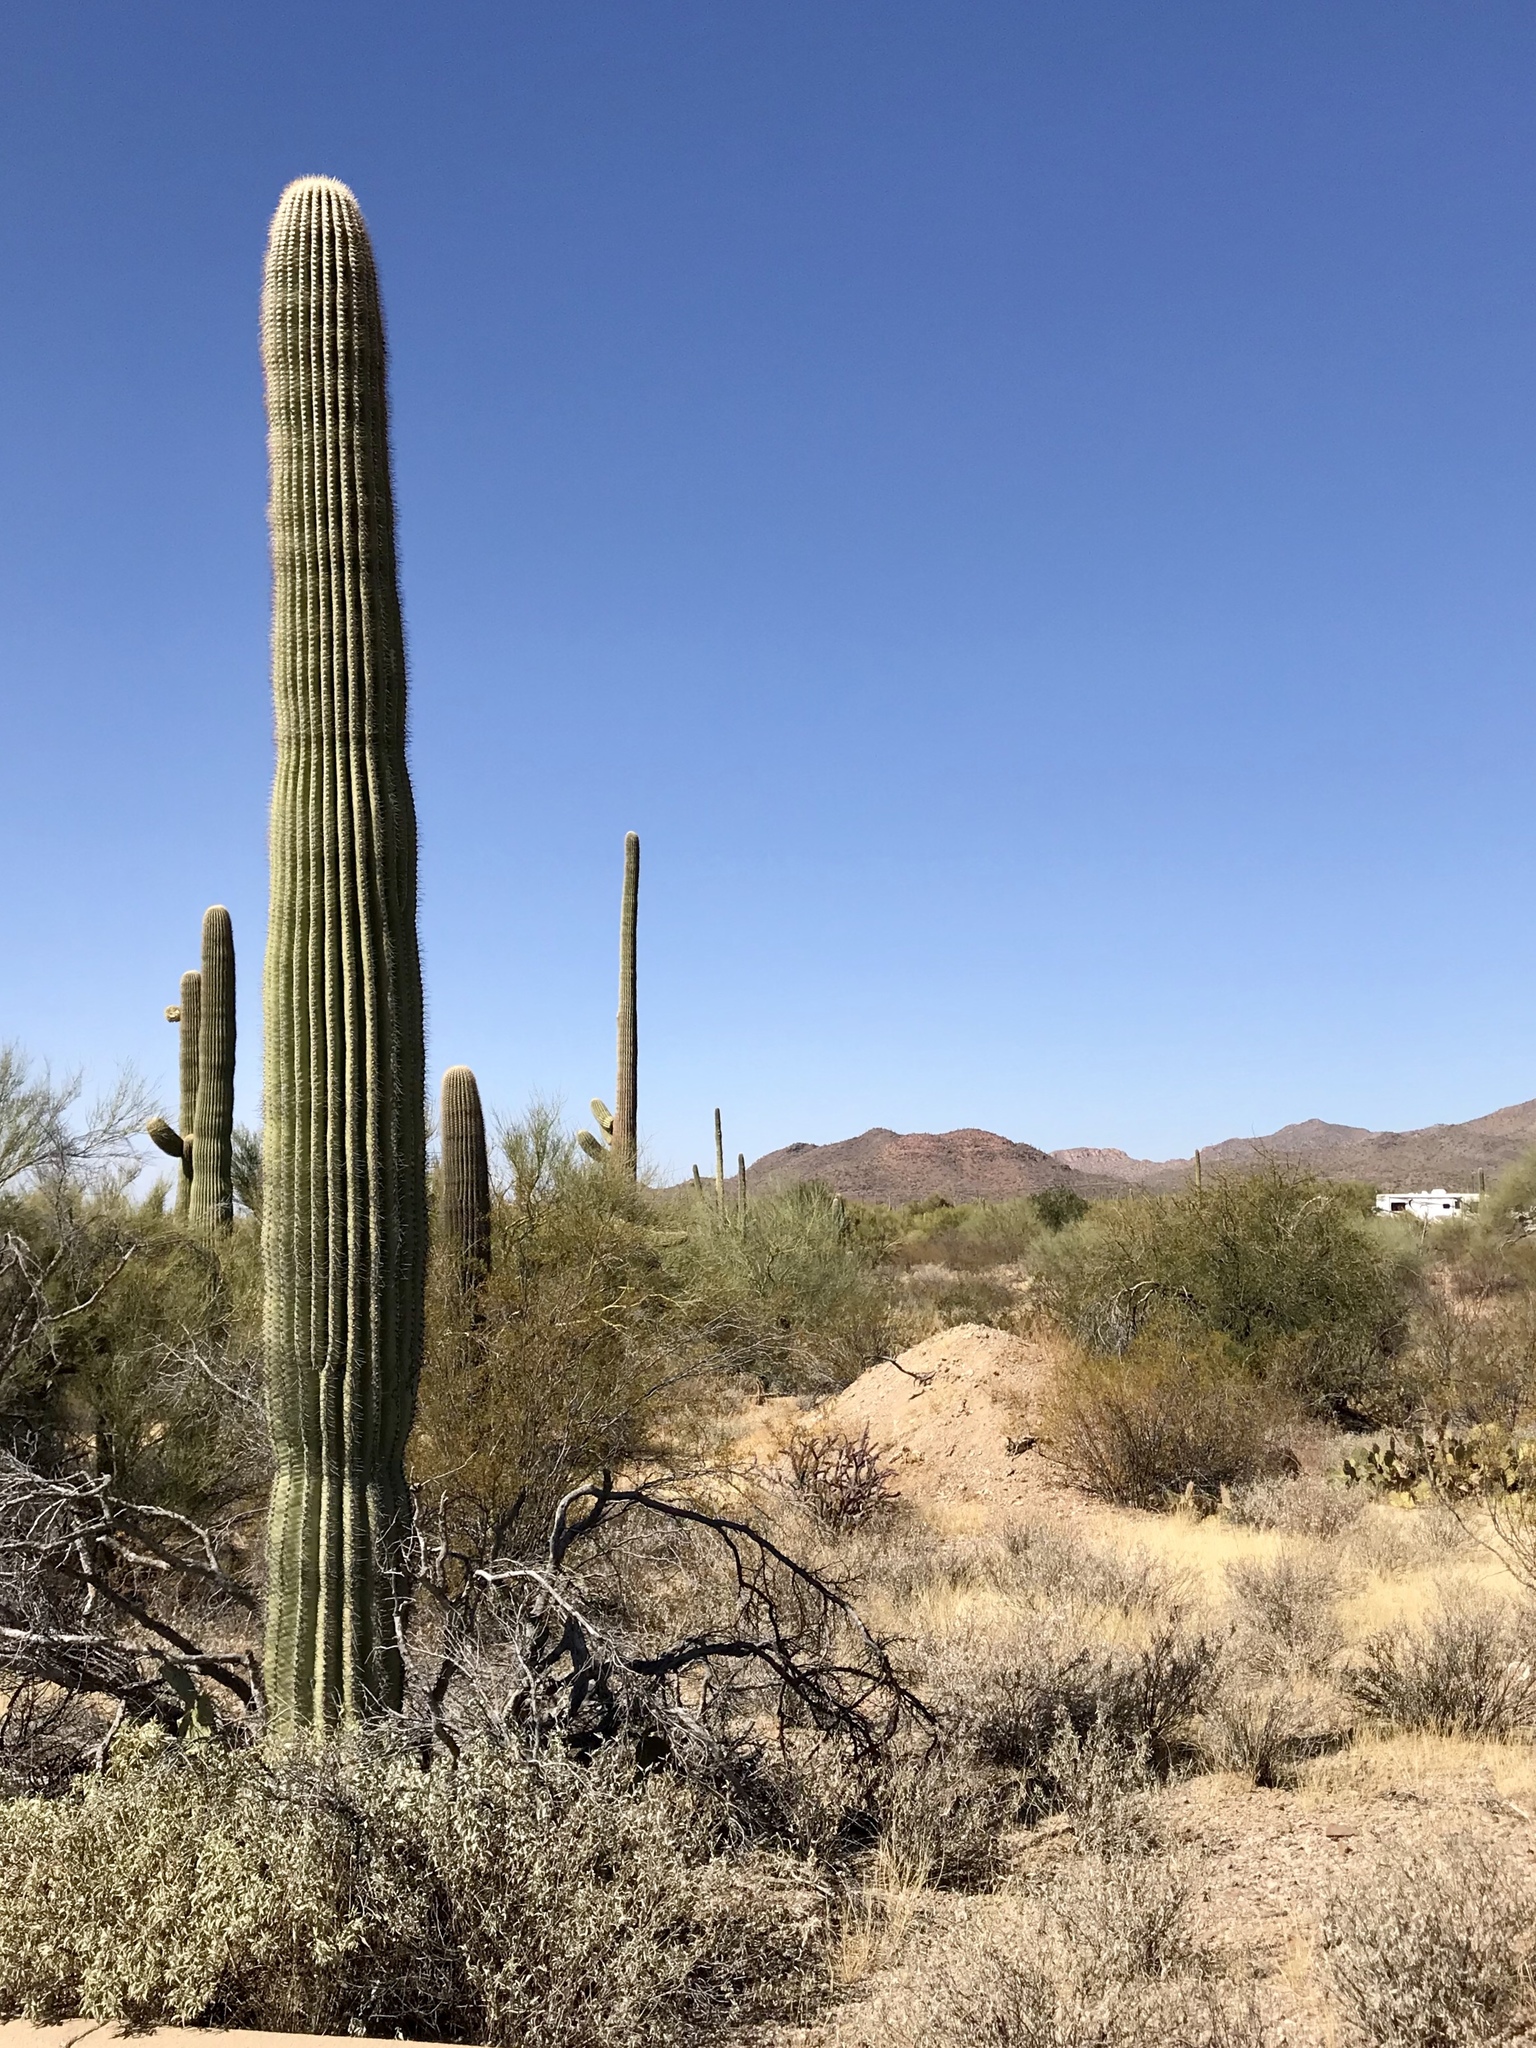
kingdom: Plantae
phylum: Tracheophyta
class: Magnoliopsida
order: Caryophyllales
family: Cactaceae
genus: Carnegiea
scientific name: Carnegiea gigantea
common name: Saguaro
